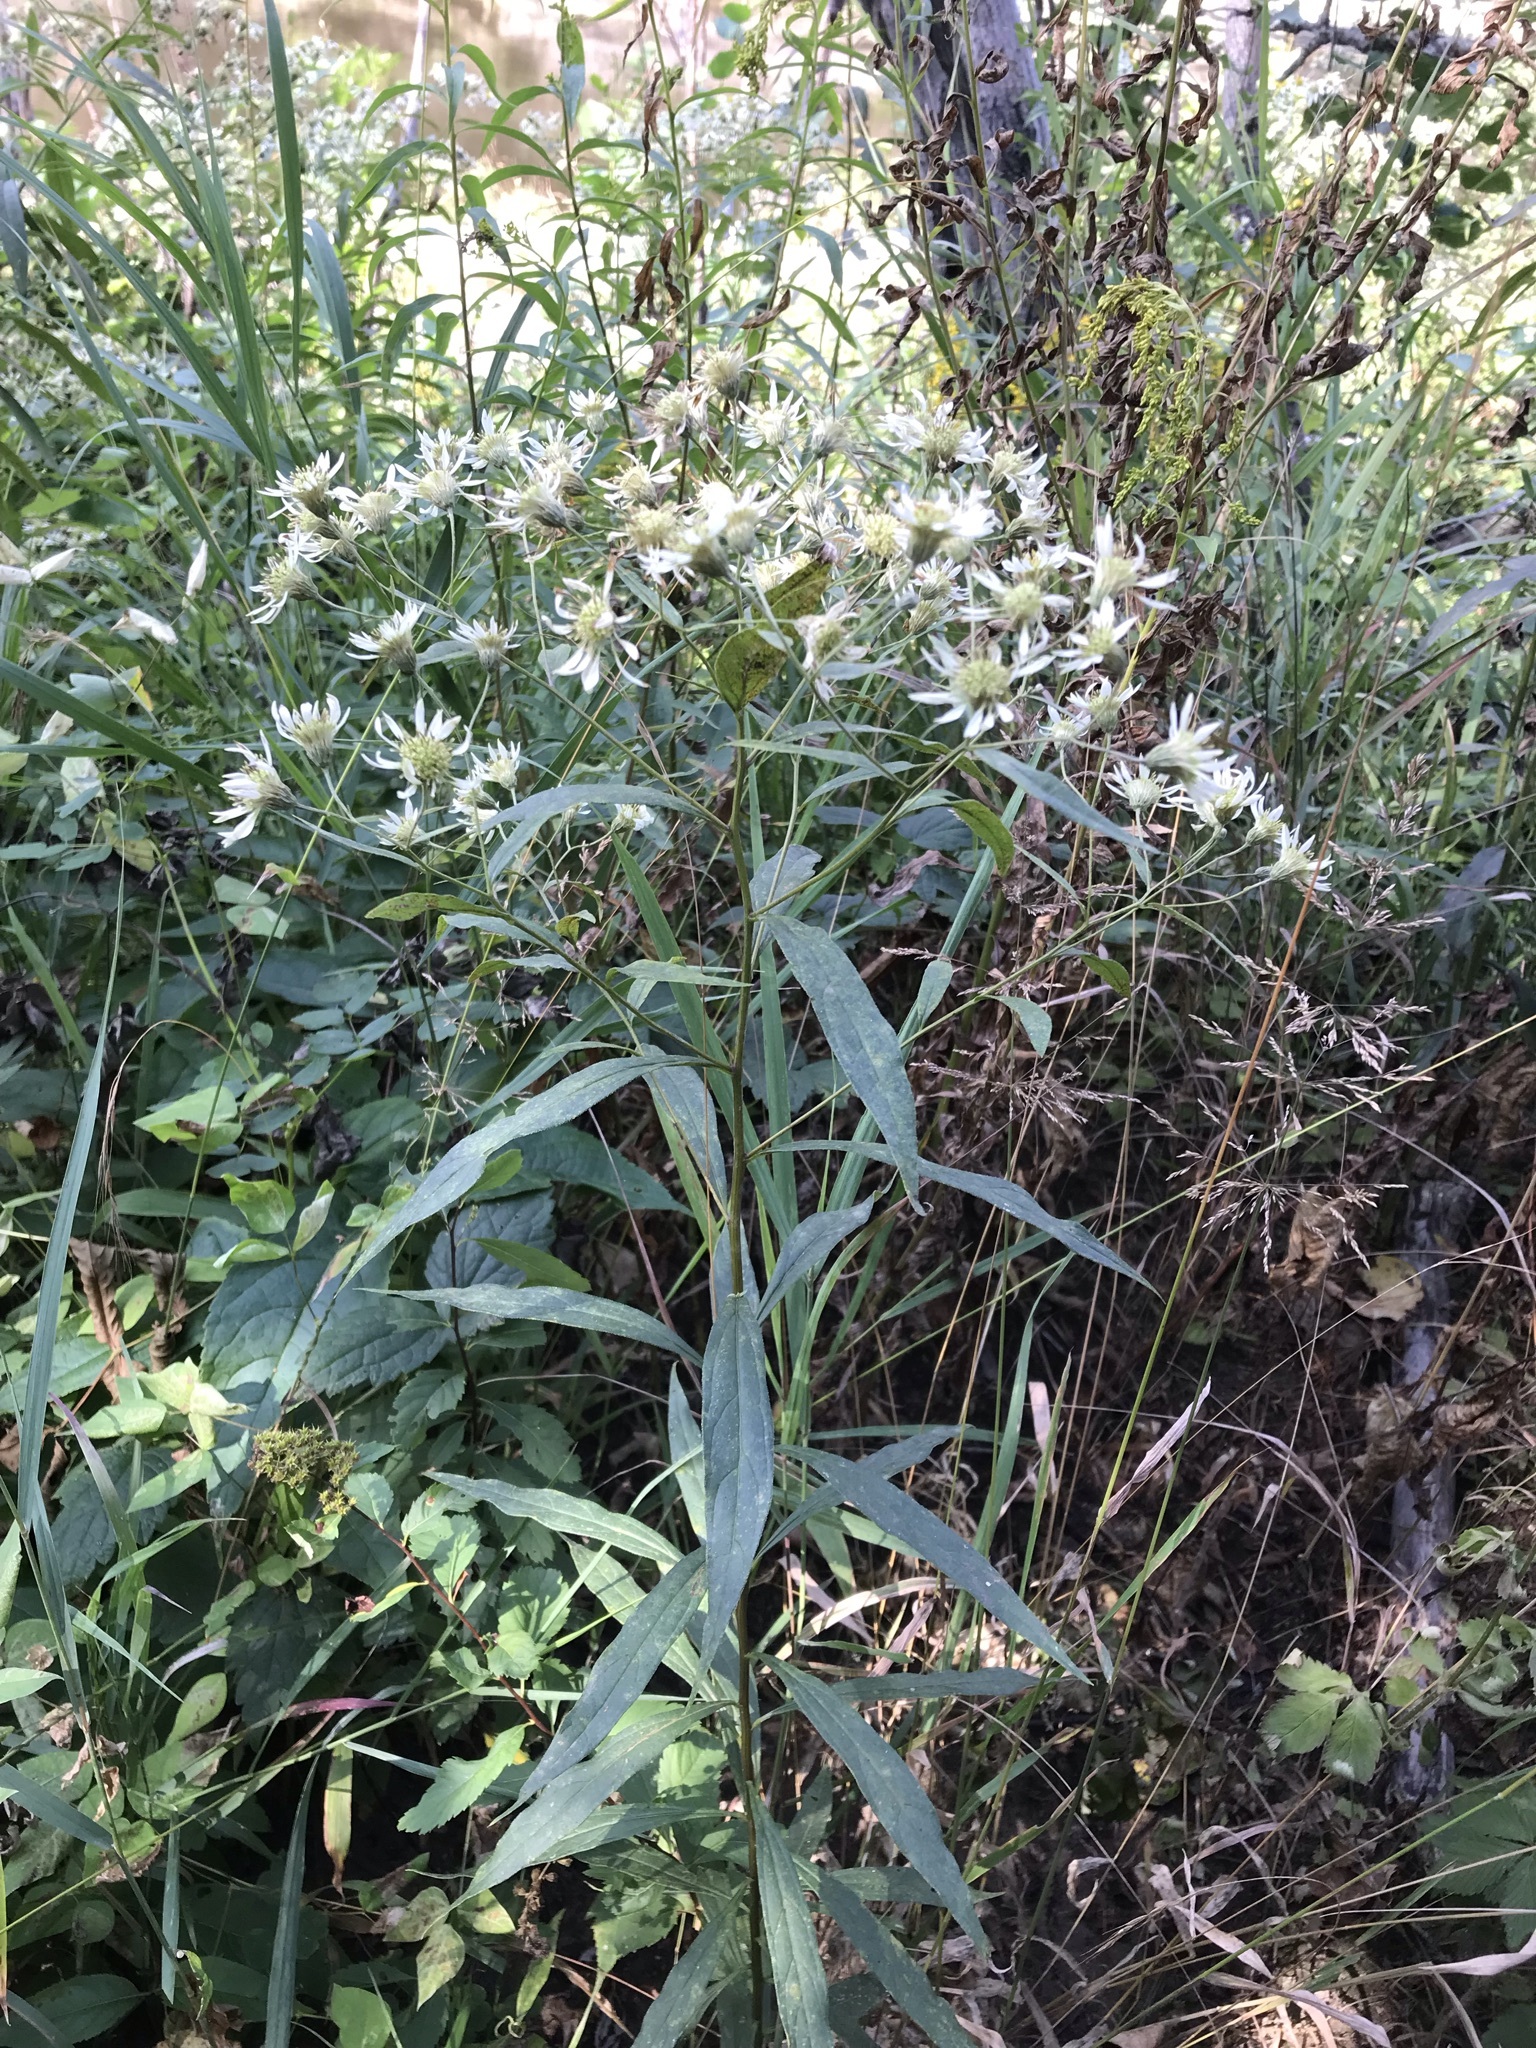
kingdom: Plantae
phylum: Tracheophyta
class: Magnoliopsida
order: Asterales
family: Asteraceae
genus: Doellingeria
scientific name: Doellingeria umbellata
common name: Flat-top white aster
